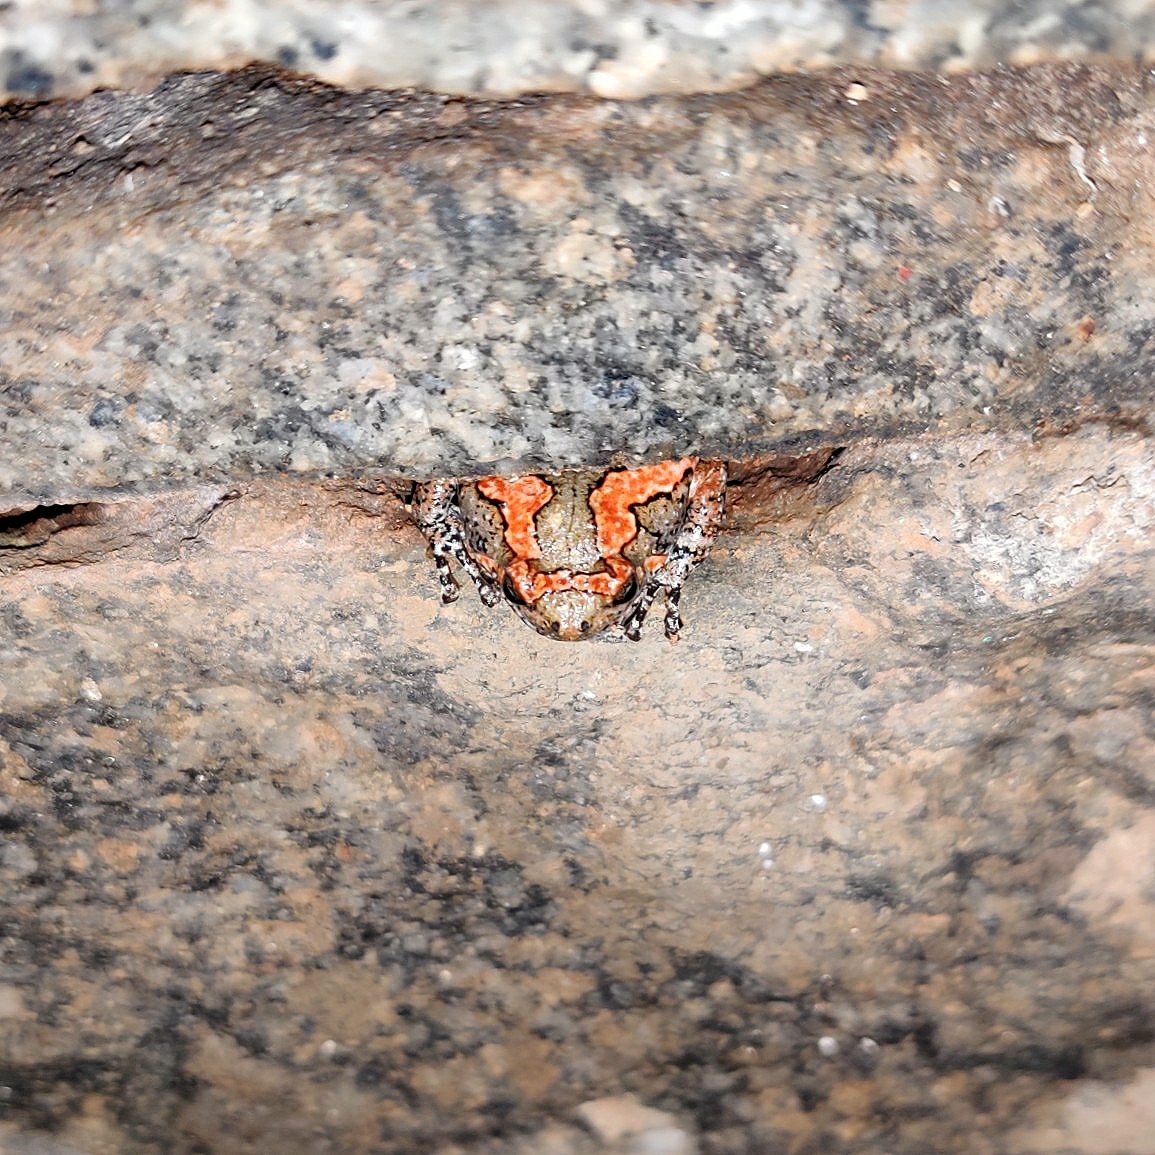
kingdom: Animalia
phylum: Chordata
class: Amphibia
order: Anura
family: Microhylidae
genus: Uperodon
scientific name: Uperodon taprobanicus
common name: Ceylon kaloula
